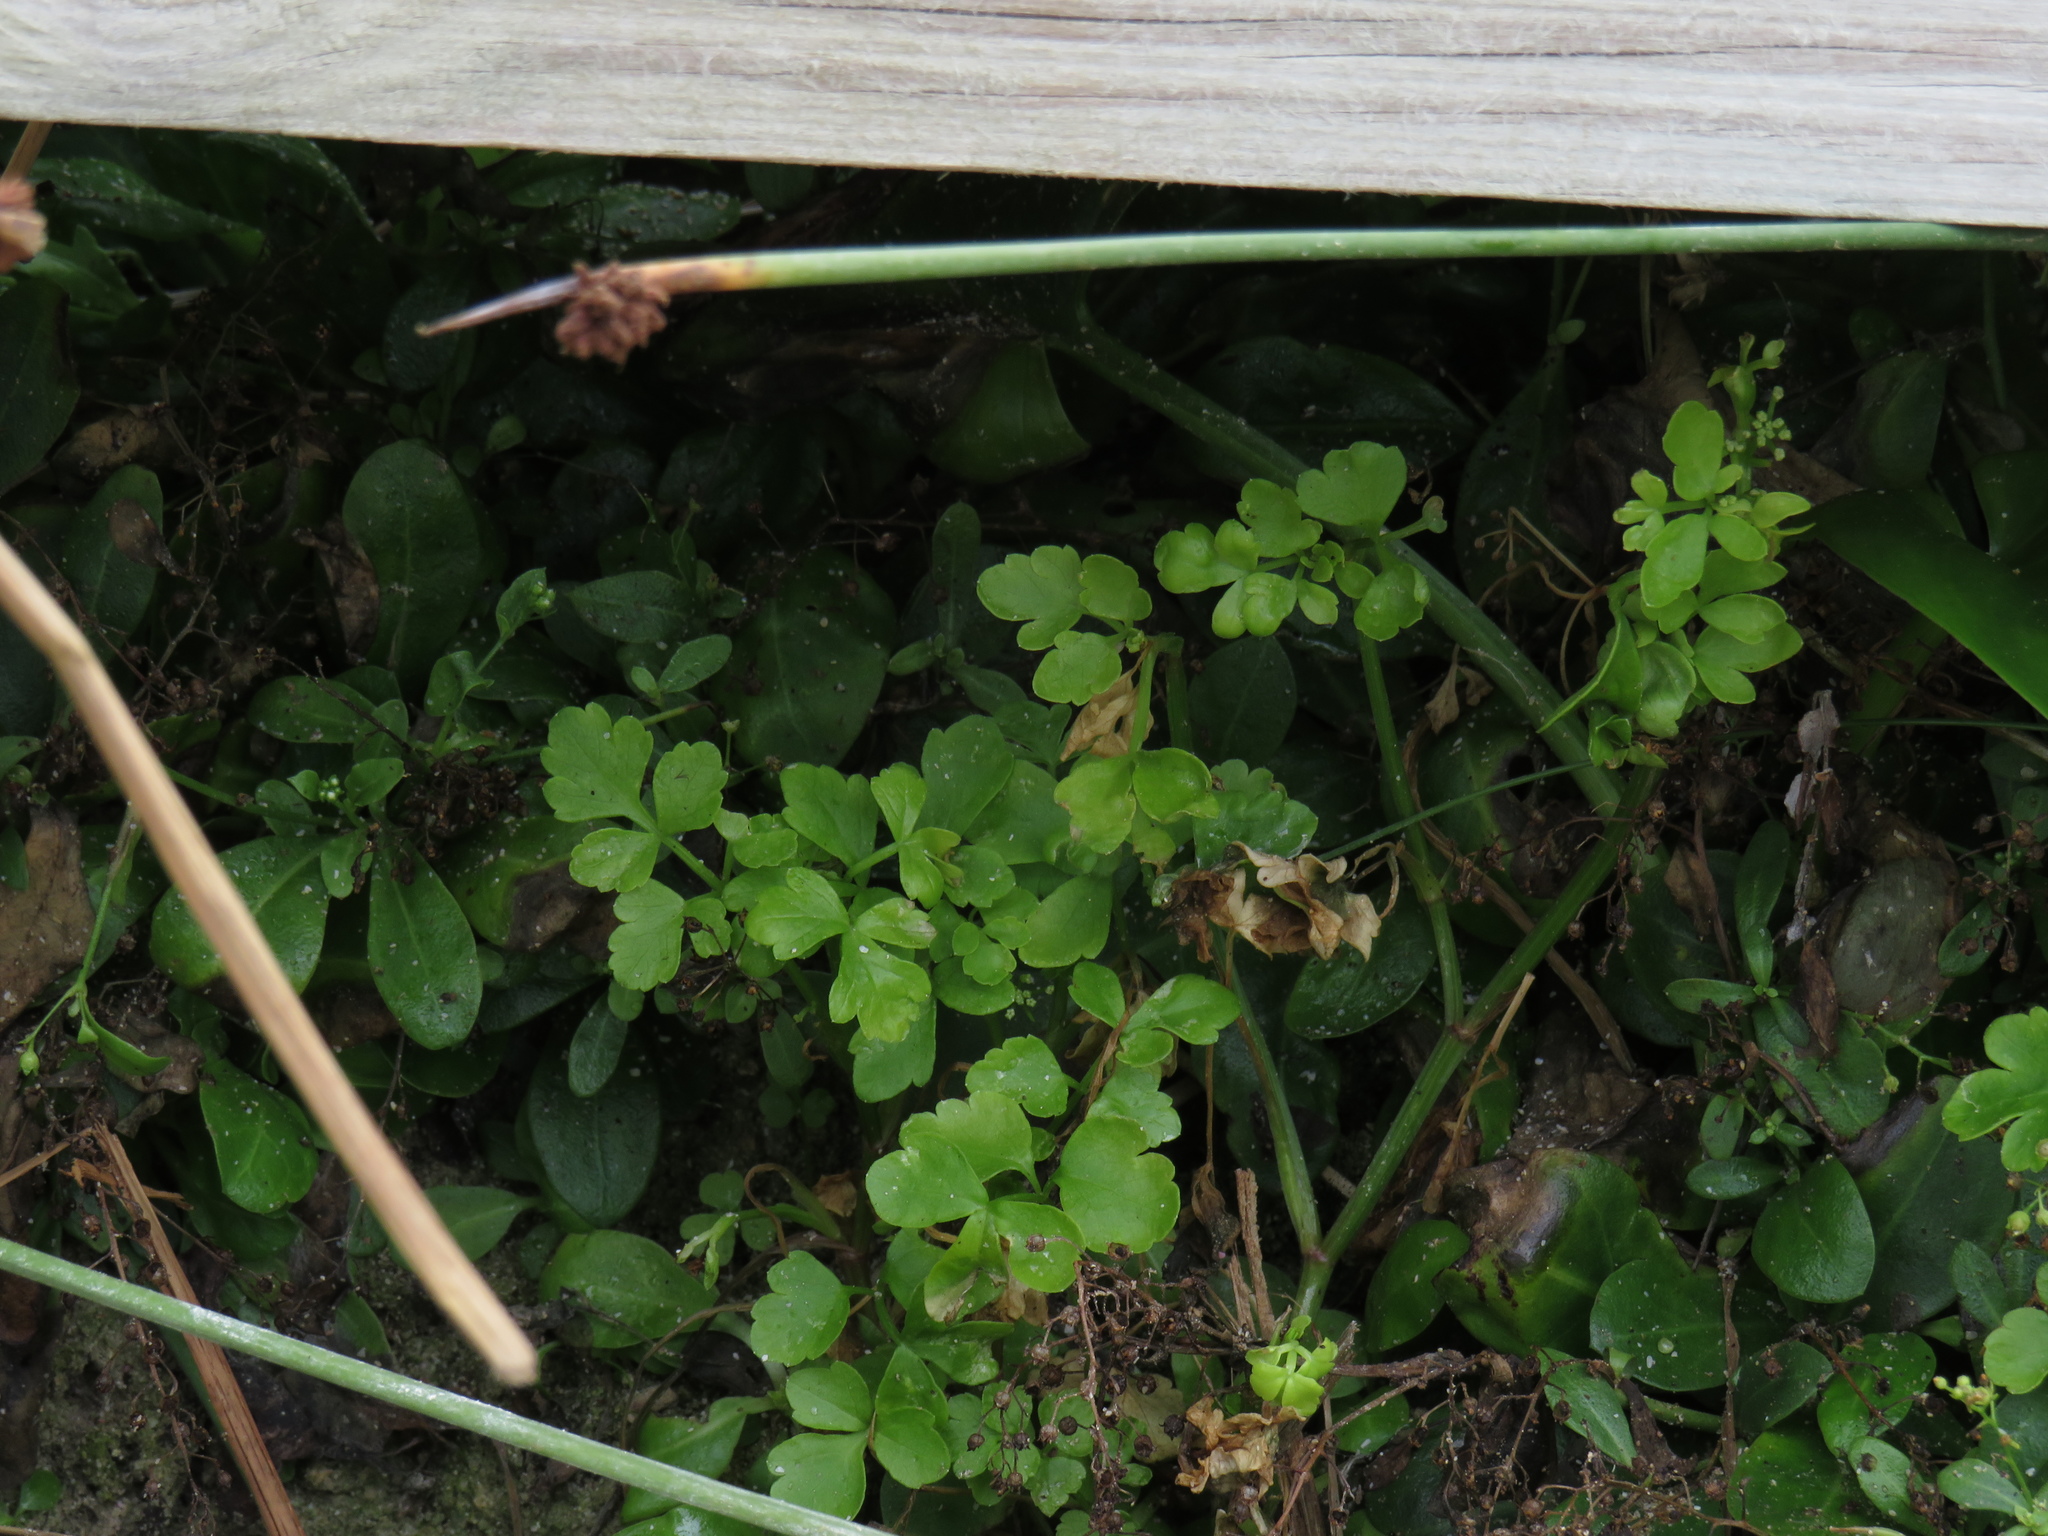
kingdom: Plantae
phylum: Tracheophyta
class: Magnoliopsida
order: Apiales
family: Apiaceae
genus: Apium
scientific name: Apium decumbens
